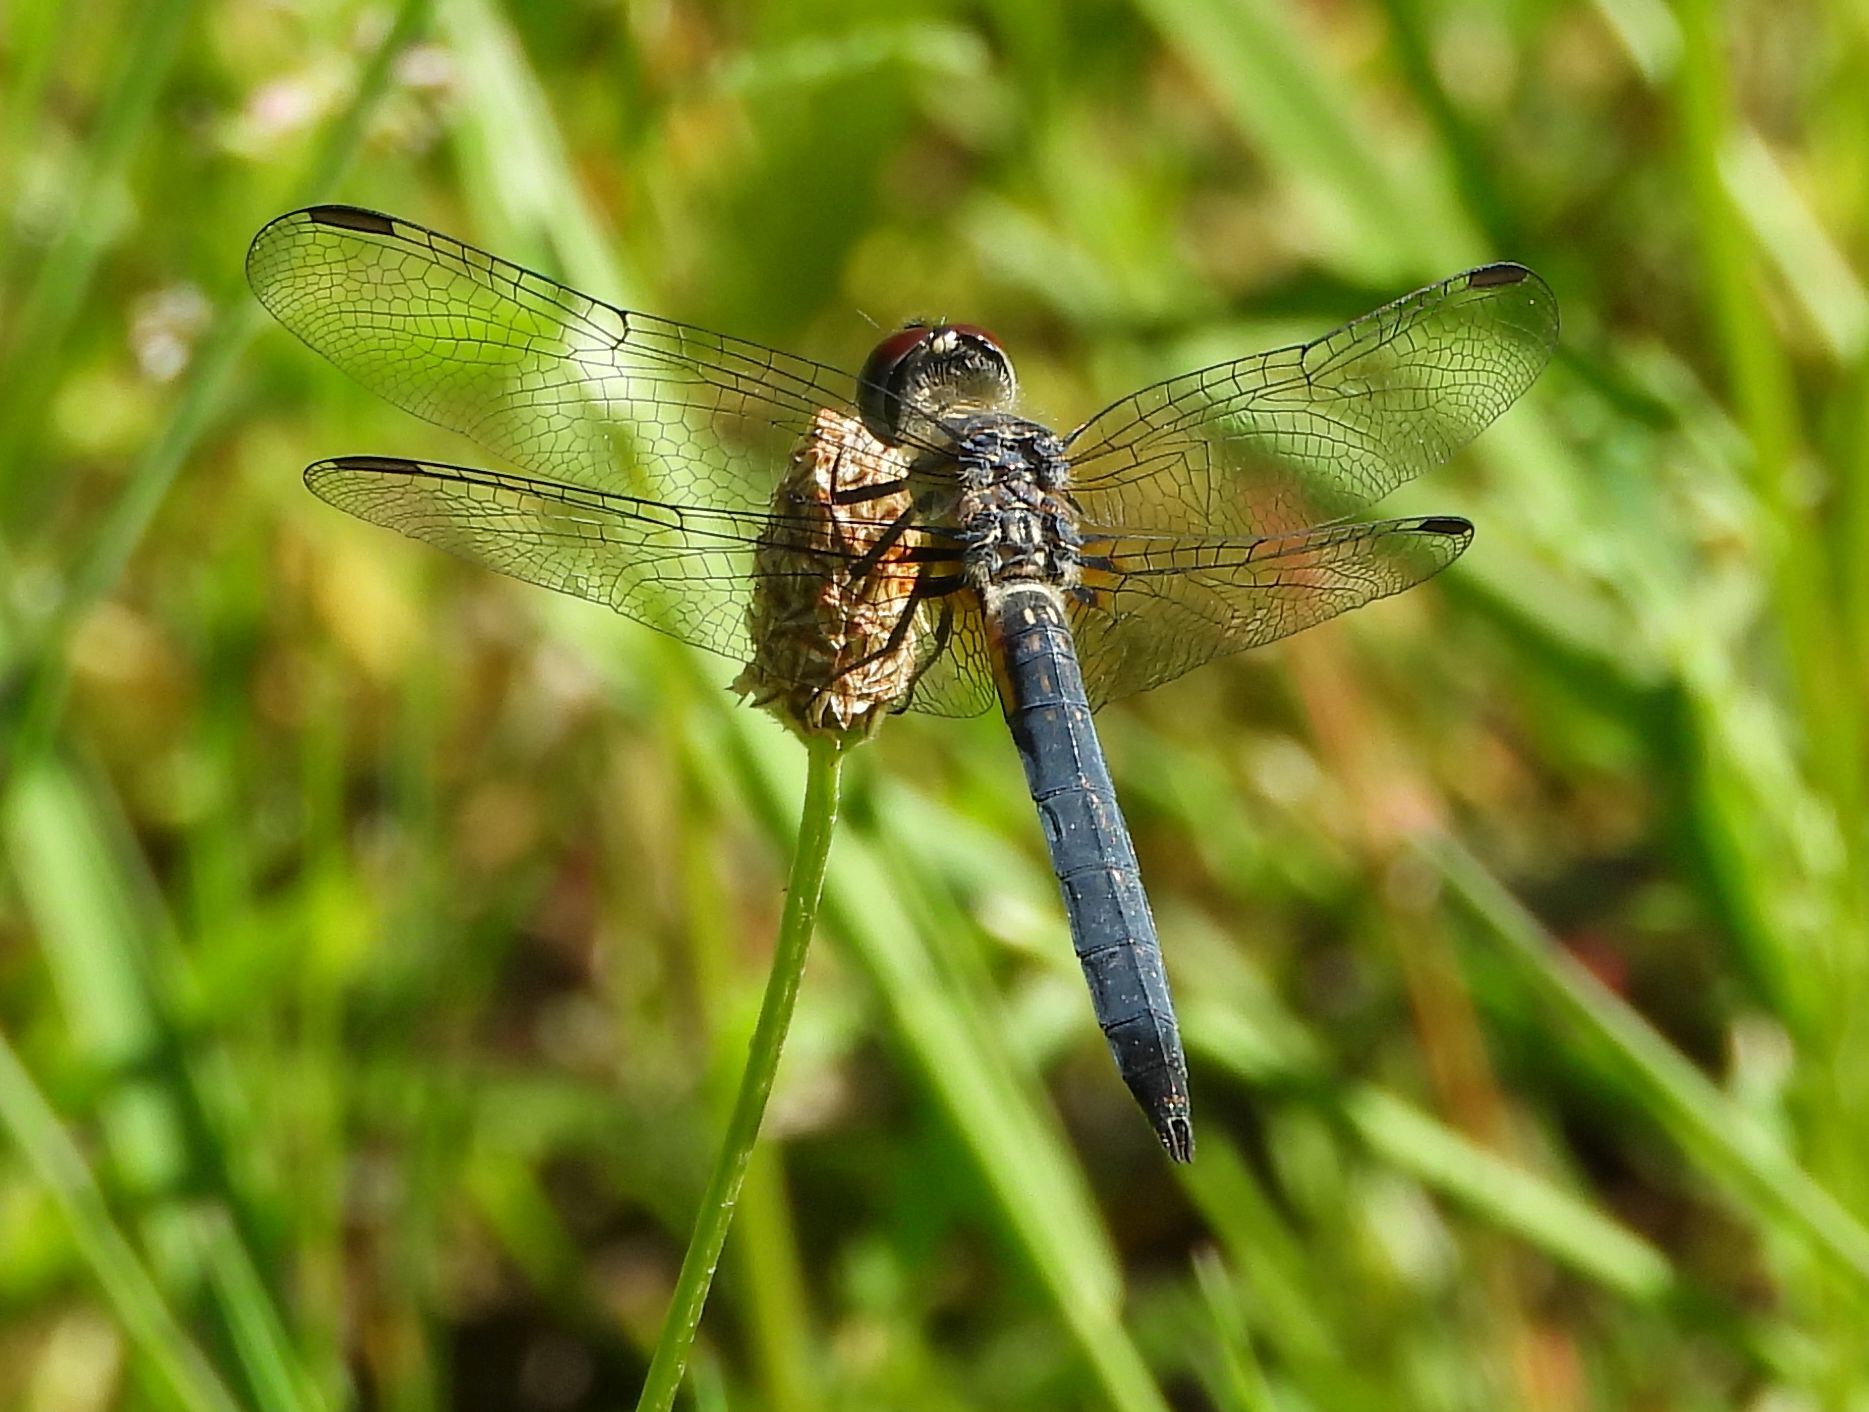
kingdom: Animalia
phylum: Arthropoda
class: Insecta
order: Odonata
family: Libellulidae
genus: Pachydiplax
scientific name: Pachydiplax longipennis
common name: Blue dasher
